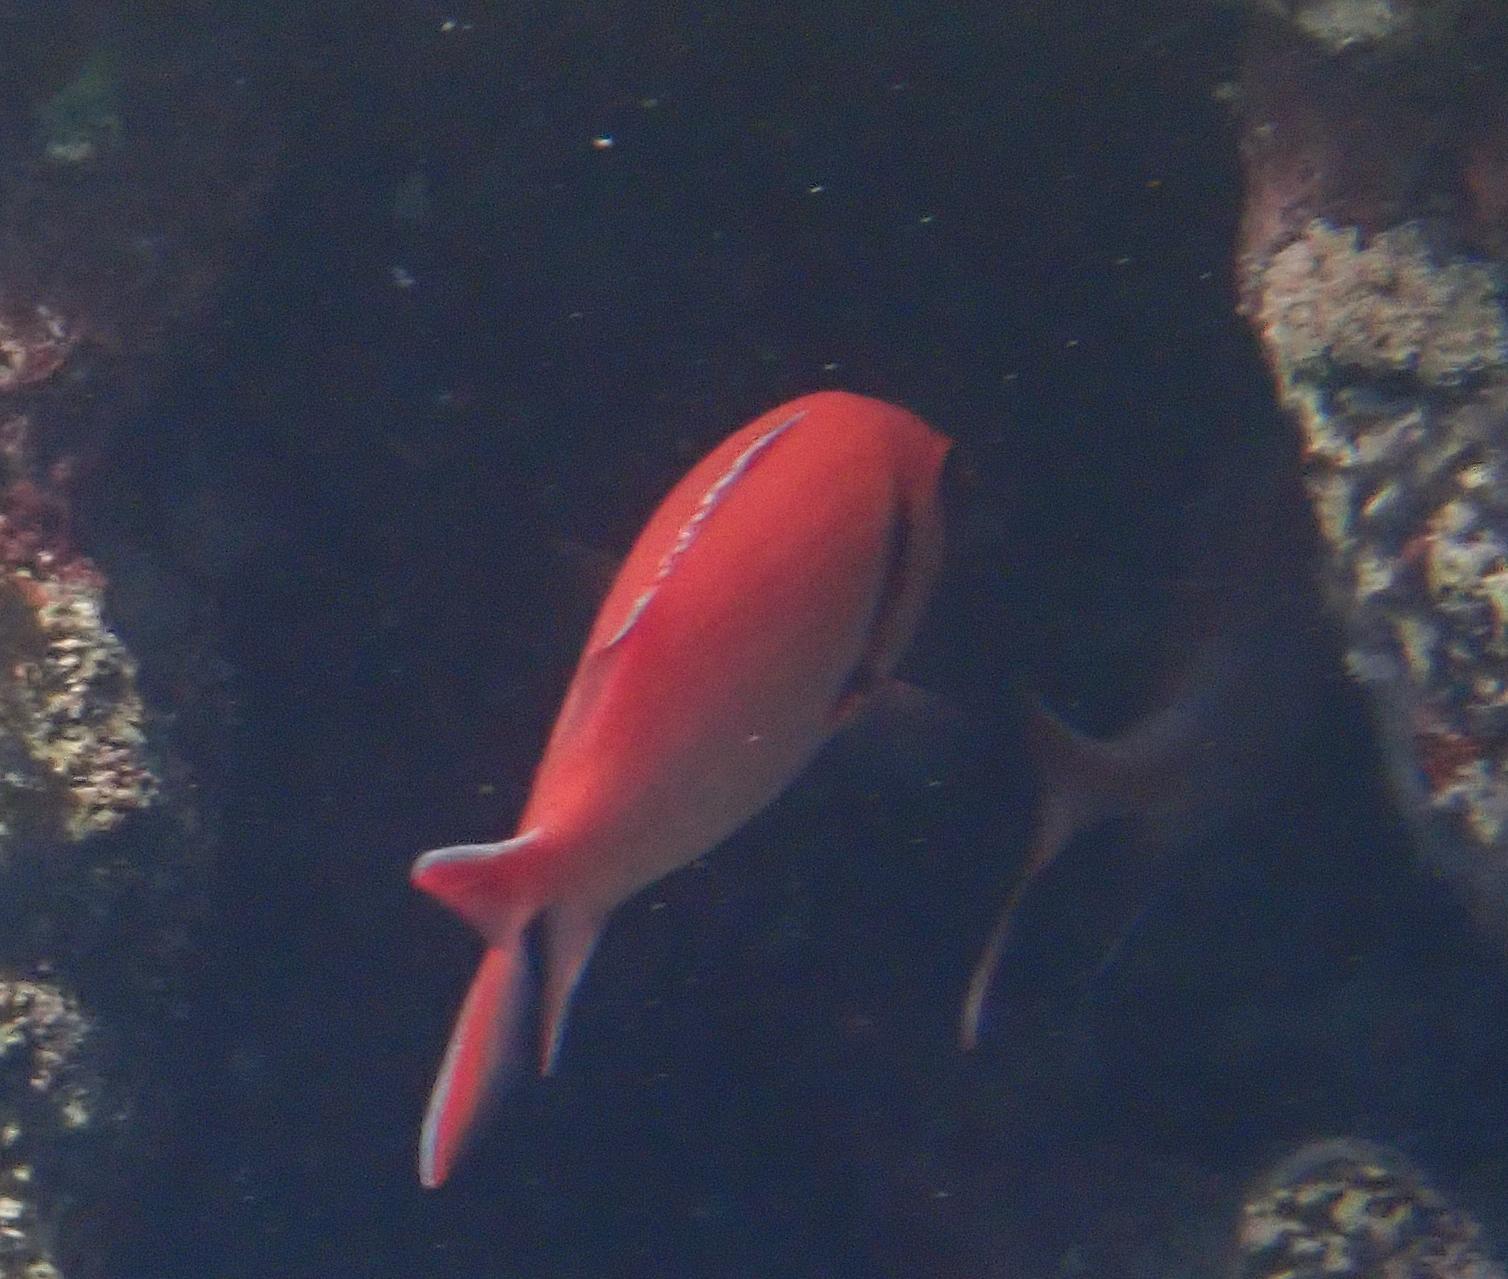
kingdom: Animalia
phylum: Chordata
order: Beryciformes
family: Holocentridae
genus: Myripristis
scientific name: Myripristis jacobus
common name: Blackbar soldierfish
